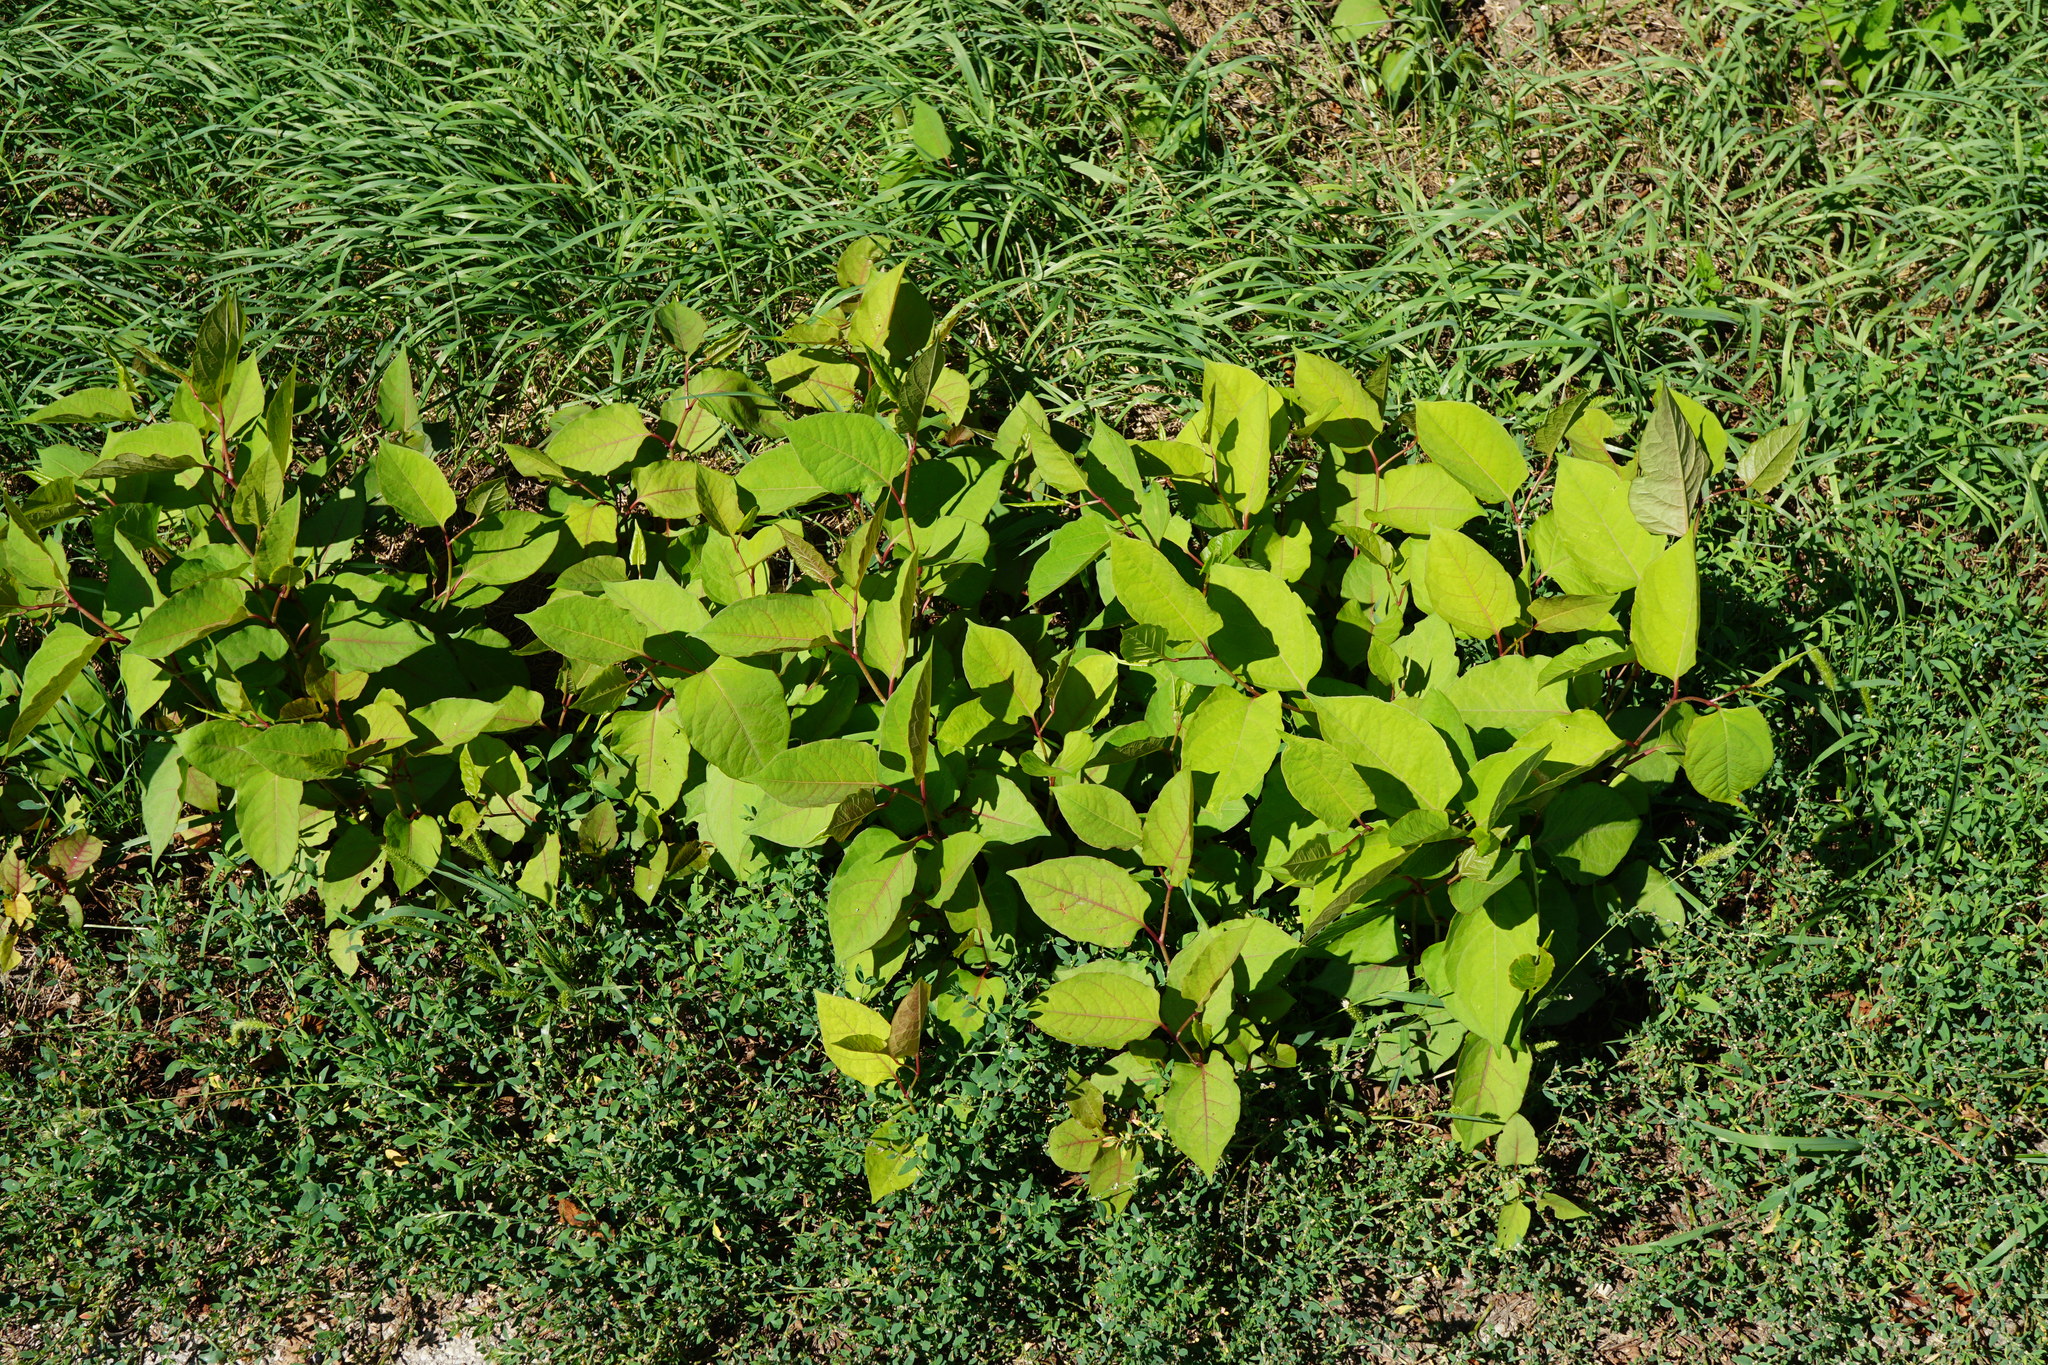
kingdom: Plantae
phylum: Tracheophyta
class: Magnoliopsida
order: Caryophyllales
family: Polygonaceae
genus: Reynoutria
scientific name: Reynoutria bohemica
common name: Bohemian knotweed
